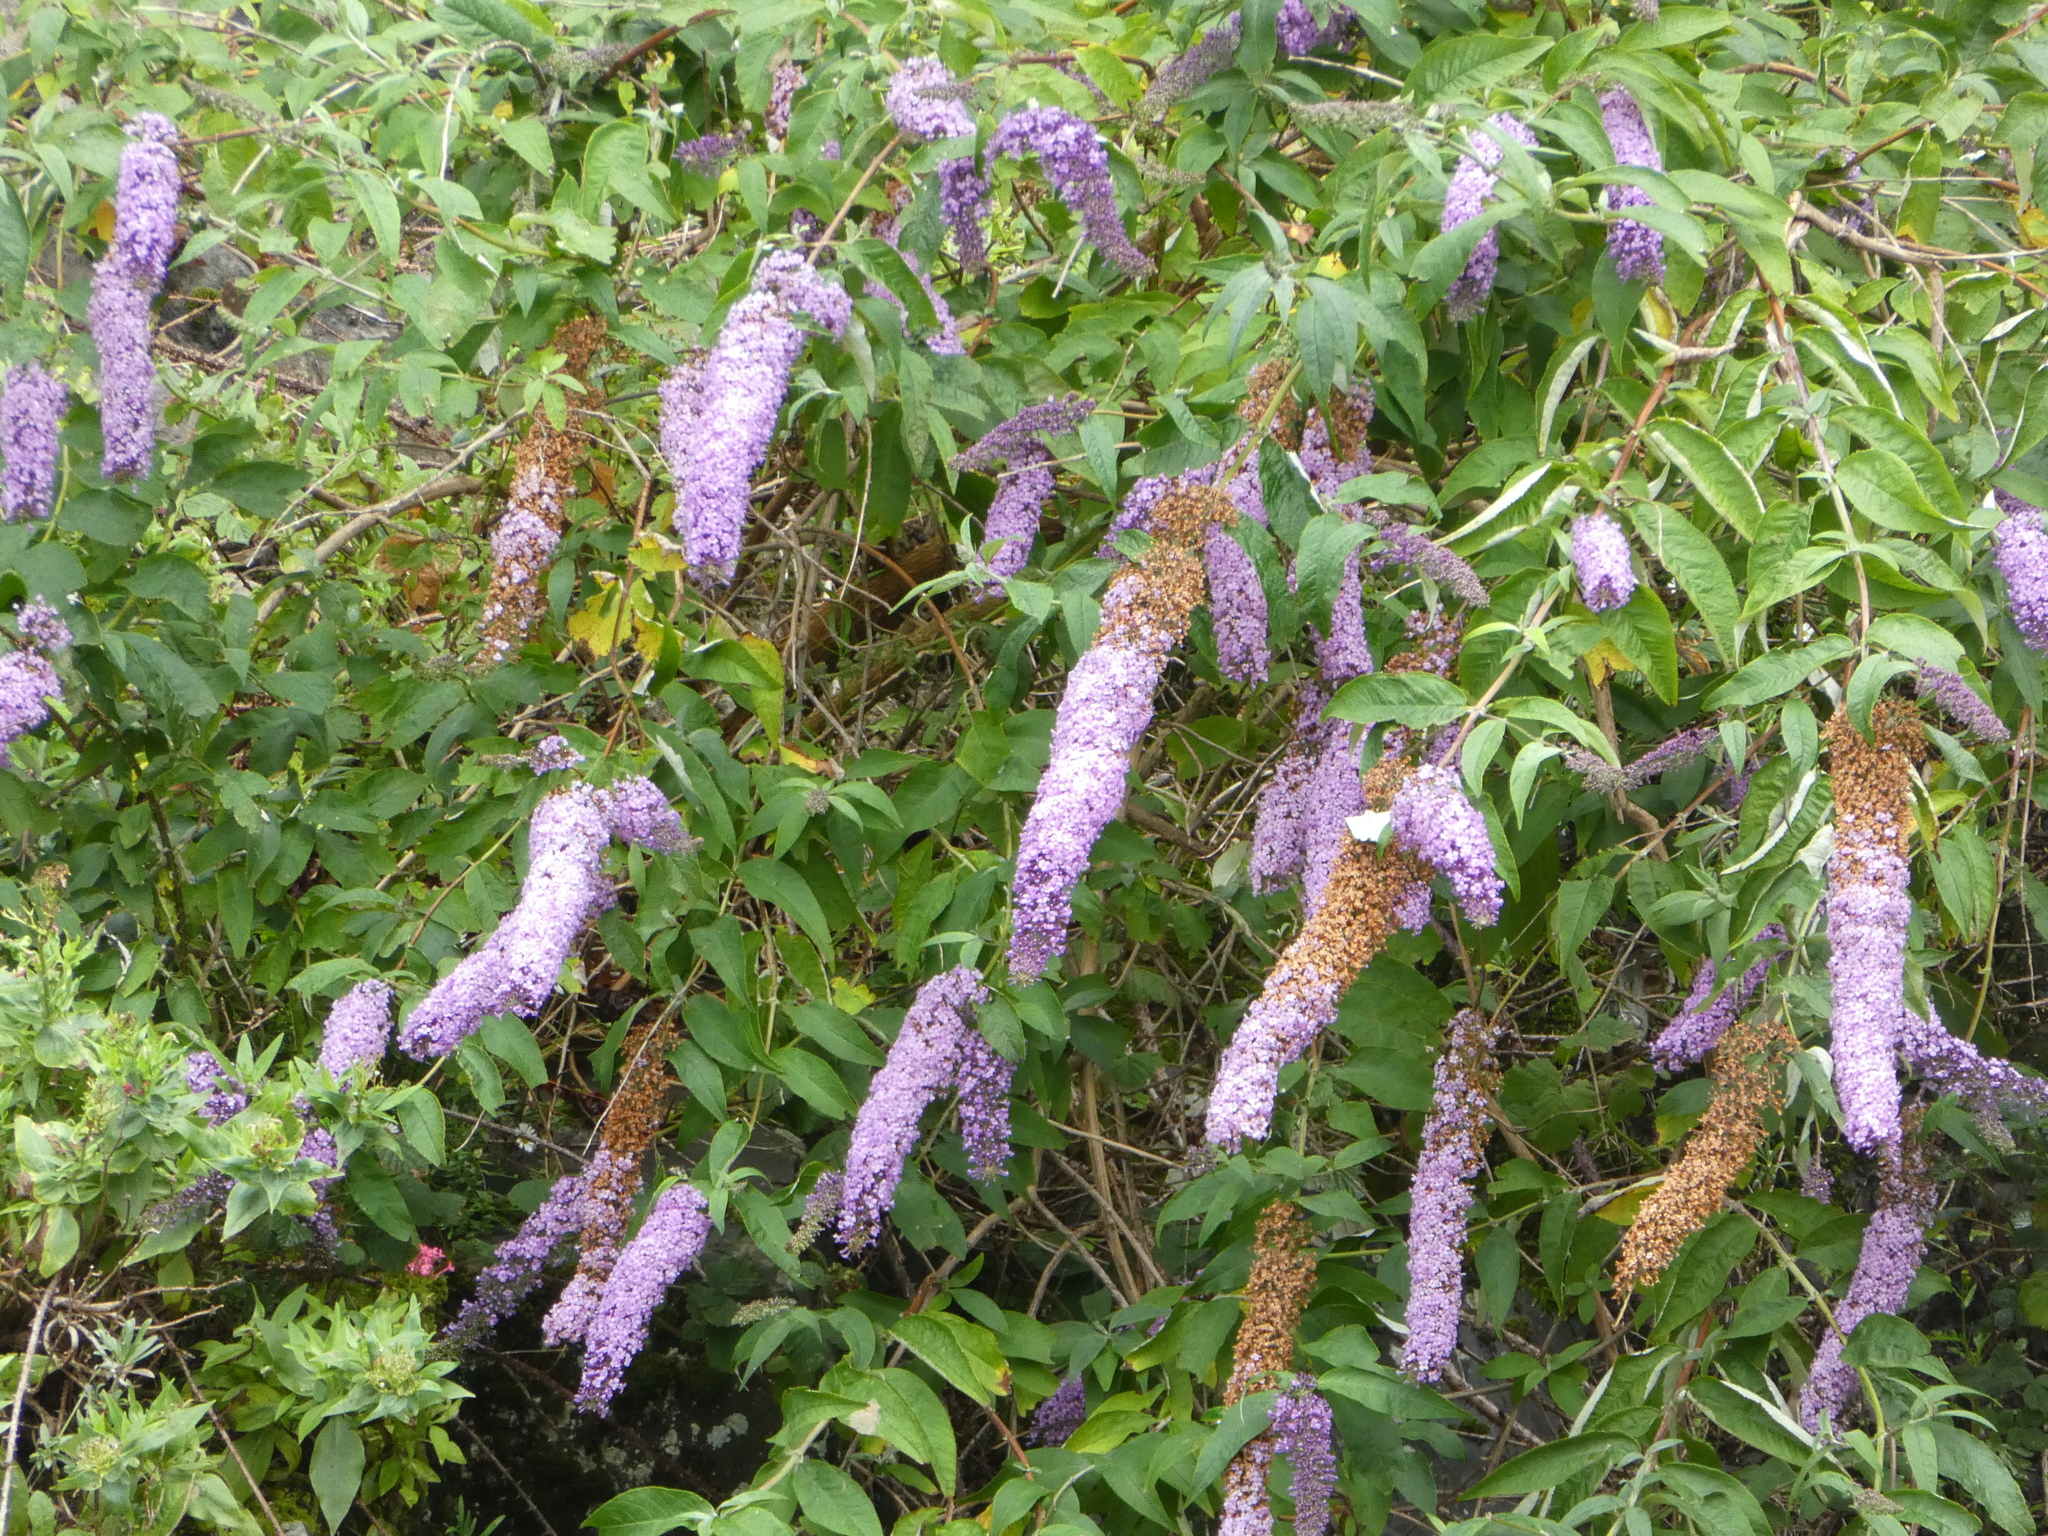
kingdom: Plantae
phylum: Tracheophyta
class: Magnoliopsida
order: Lamiales
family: Scrophulariaceae
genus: Buddleja
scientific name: Buddleja davidii
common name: Butterfly-bush
